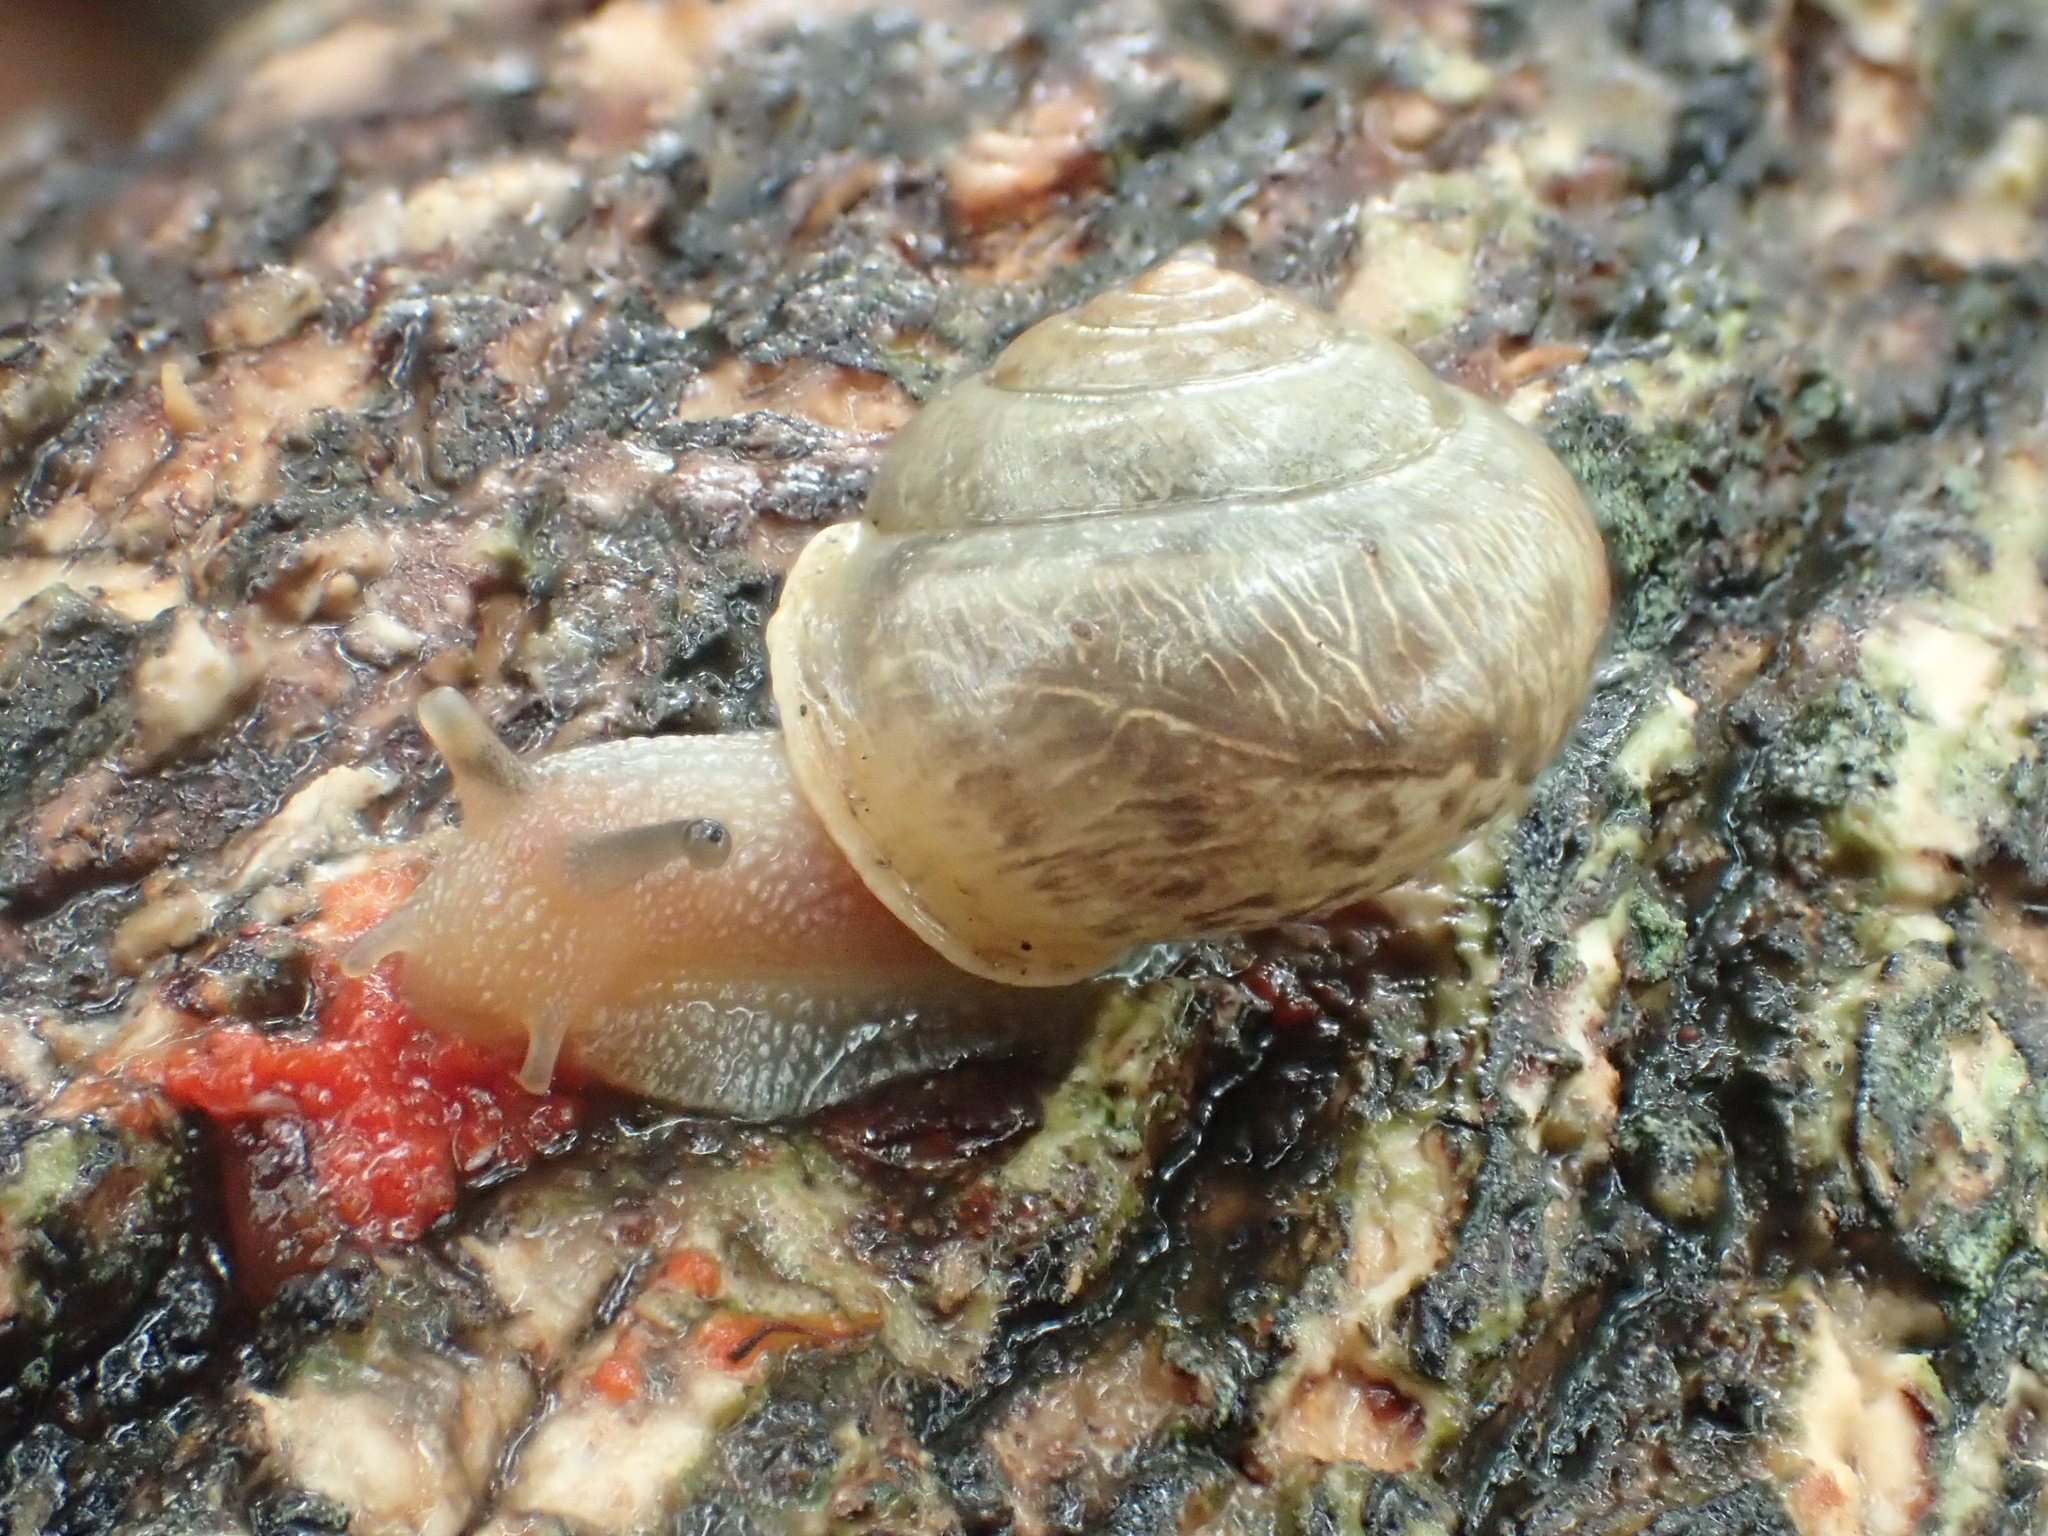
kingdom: Animalia
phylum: Mollusca
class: Gastropoda
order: Stylommatophora
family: Camaenidae
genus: Bradybaena
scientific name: Bradybaena similaris
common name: Asian trampsnail
